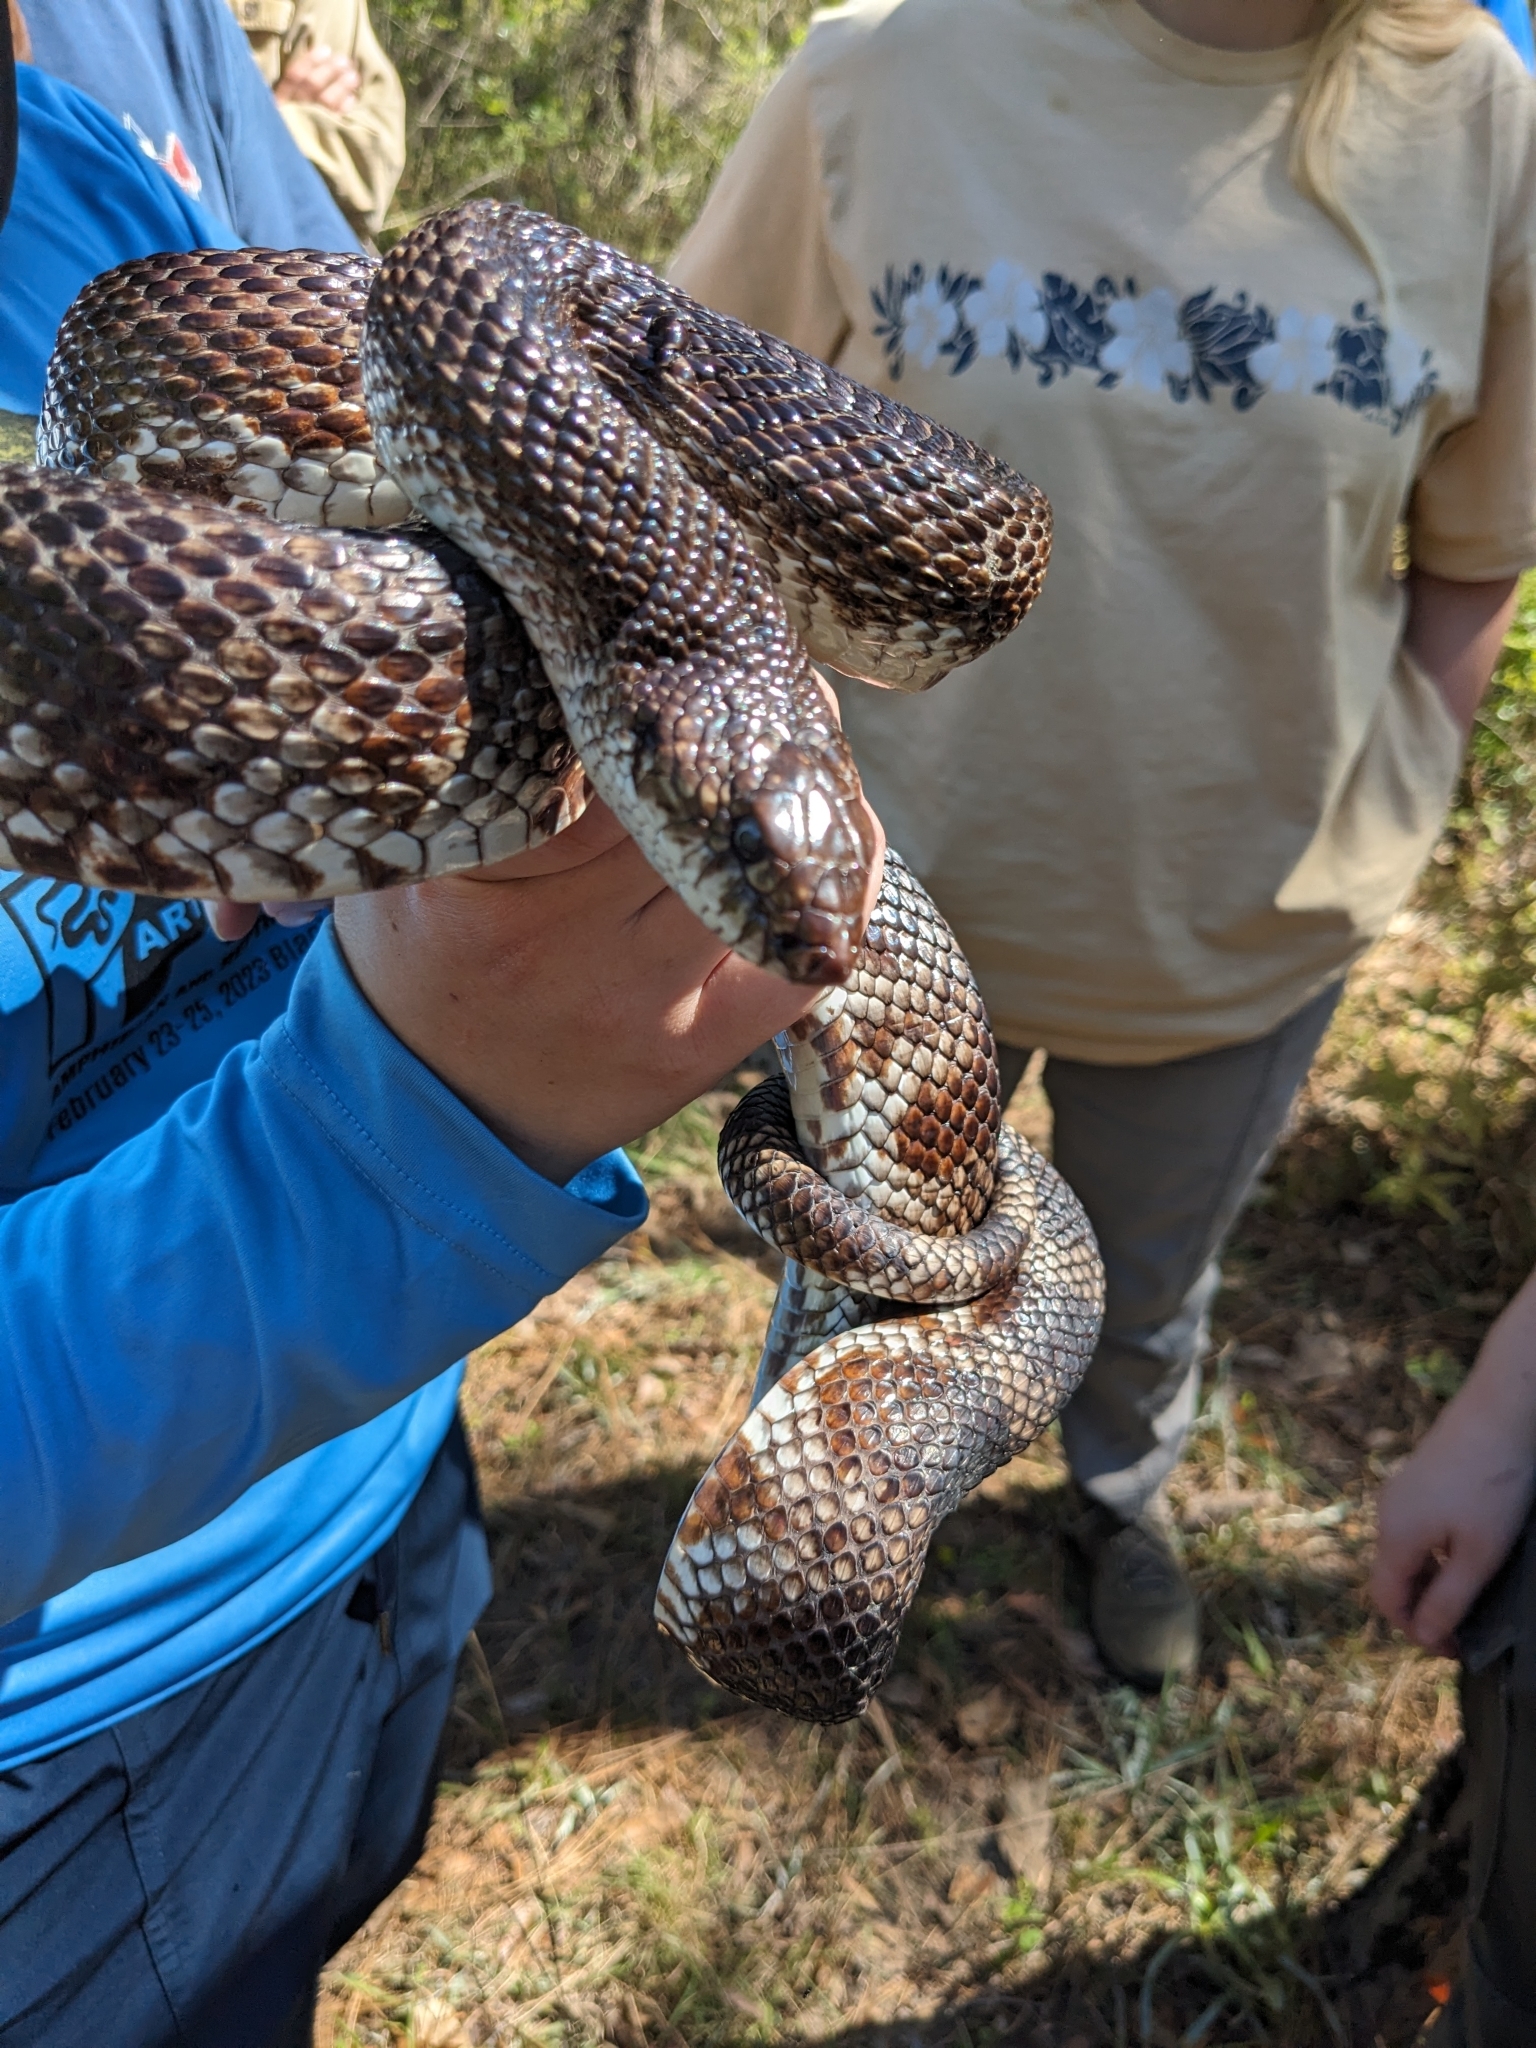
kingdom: Animalia
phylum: Chordata
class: Squamata
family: Colubridae
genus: Pituophis
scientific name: Pituophis melanoleucus
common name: Pine snake
